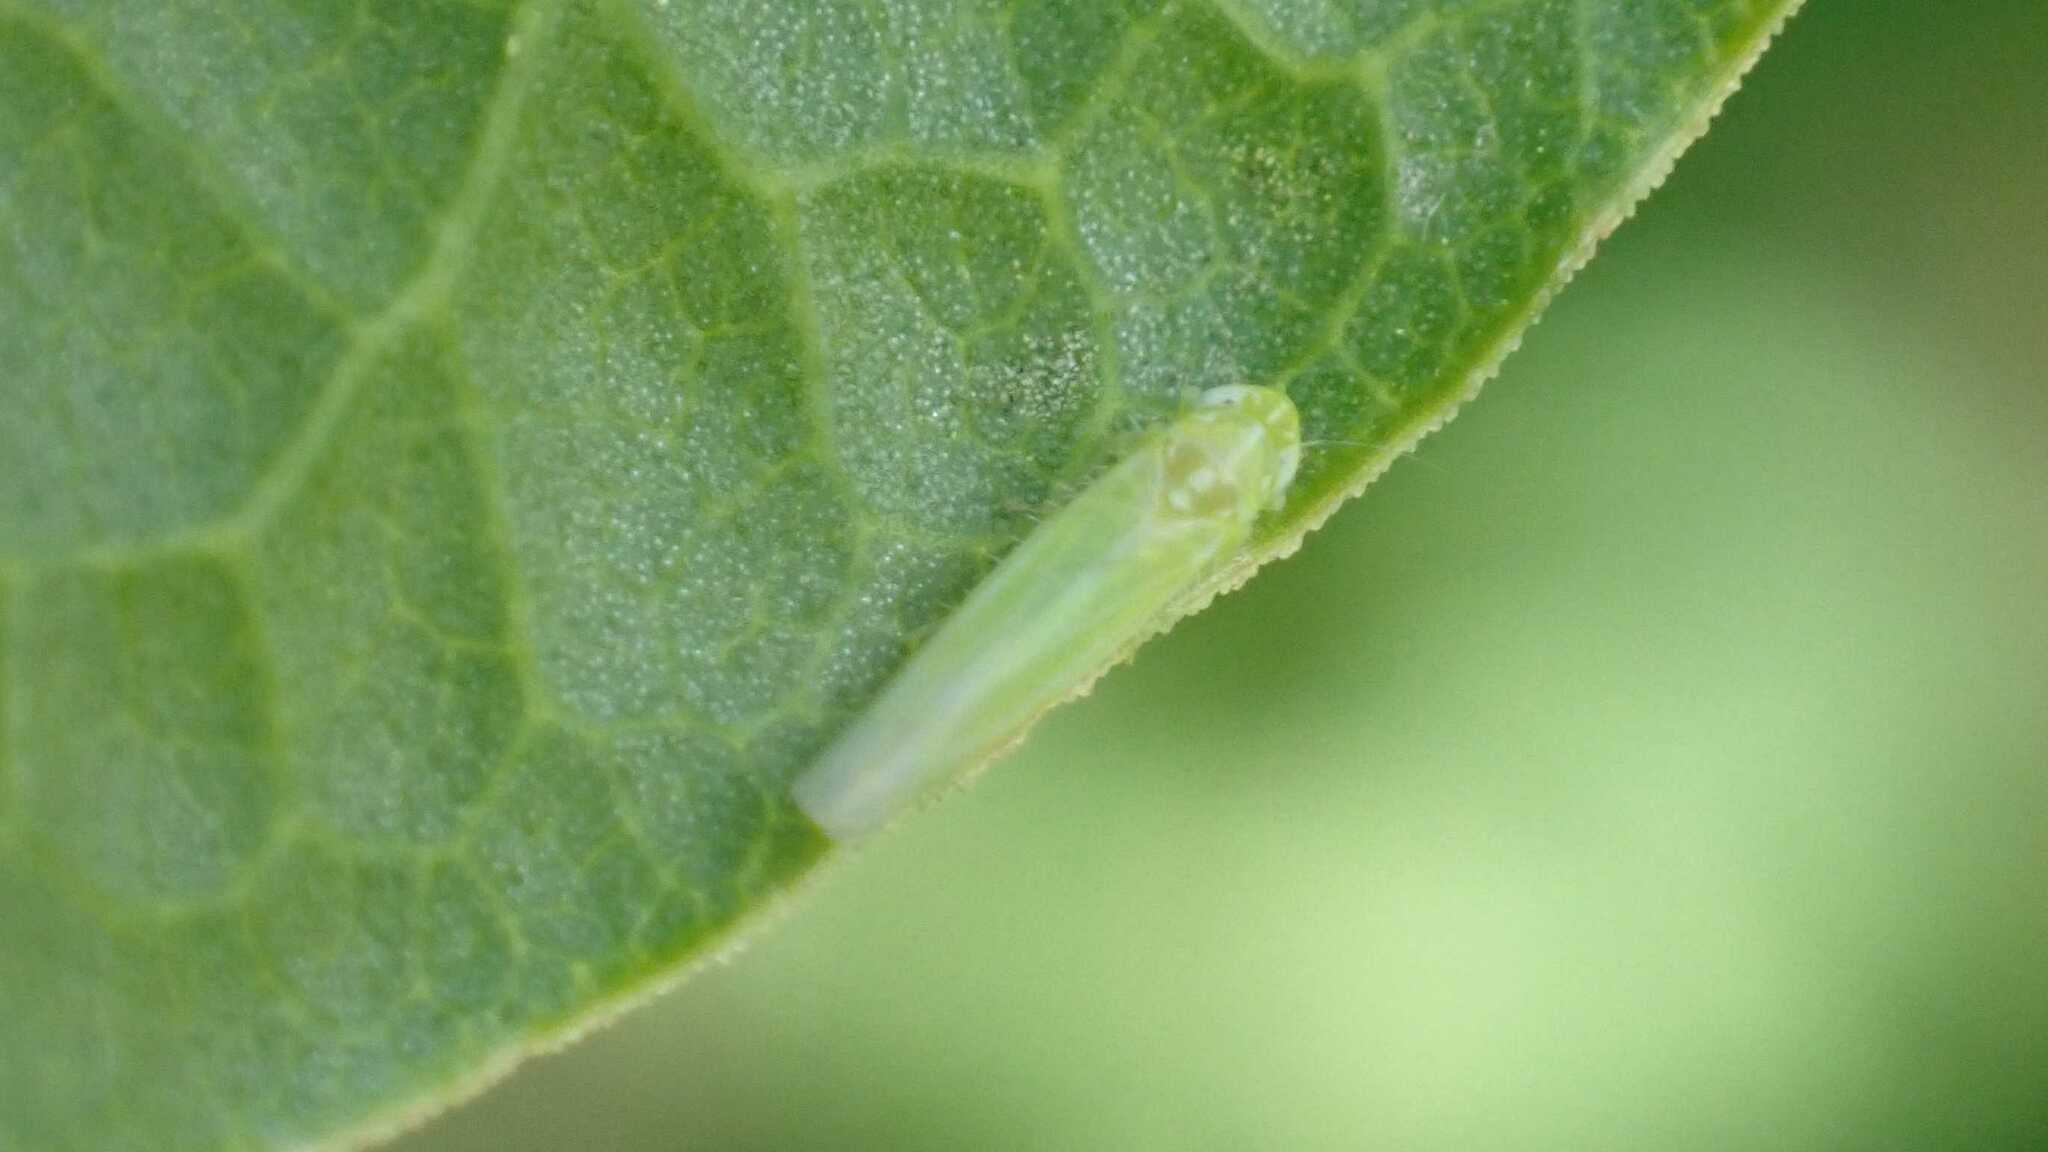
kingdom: Animalia
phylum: Arthropoda
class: Insecta
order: Hemiptera
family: Cicadellidae
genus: Hebata
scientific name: Hebata vitis
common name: The smaller green leafhopper
